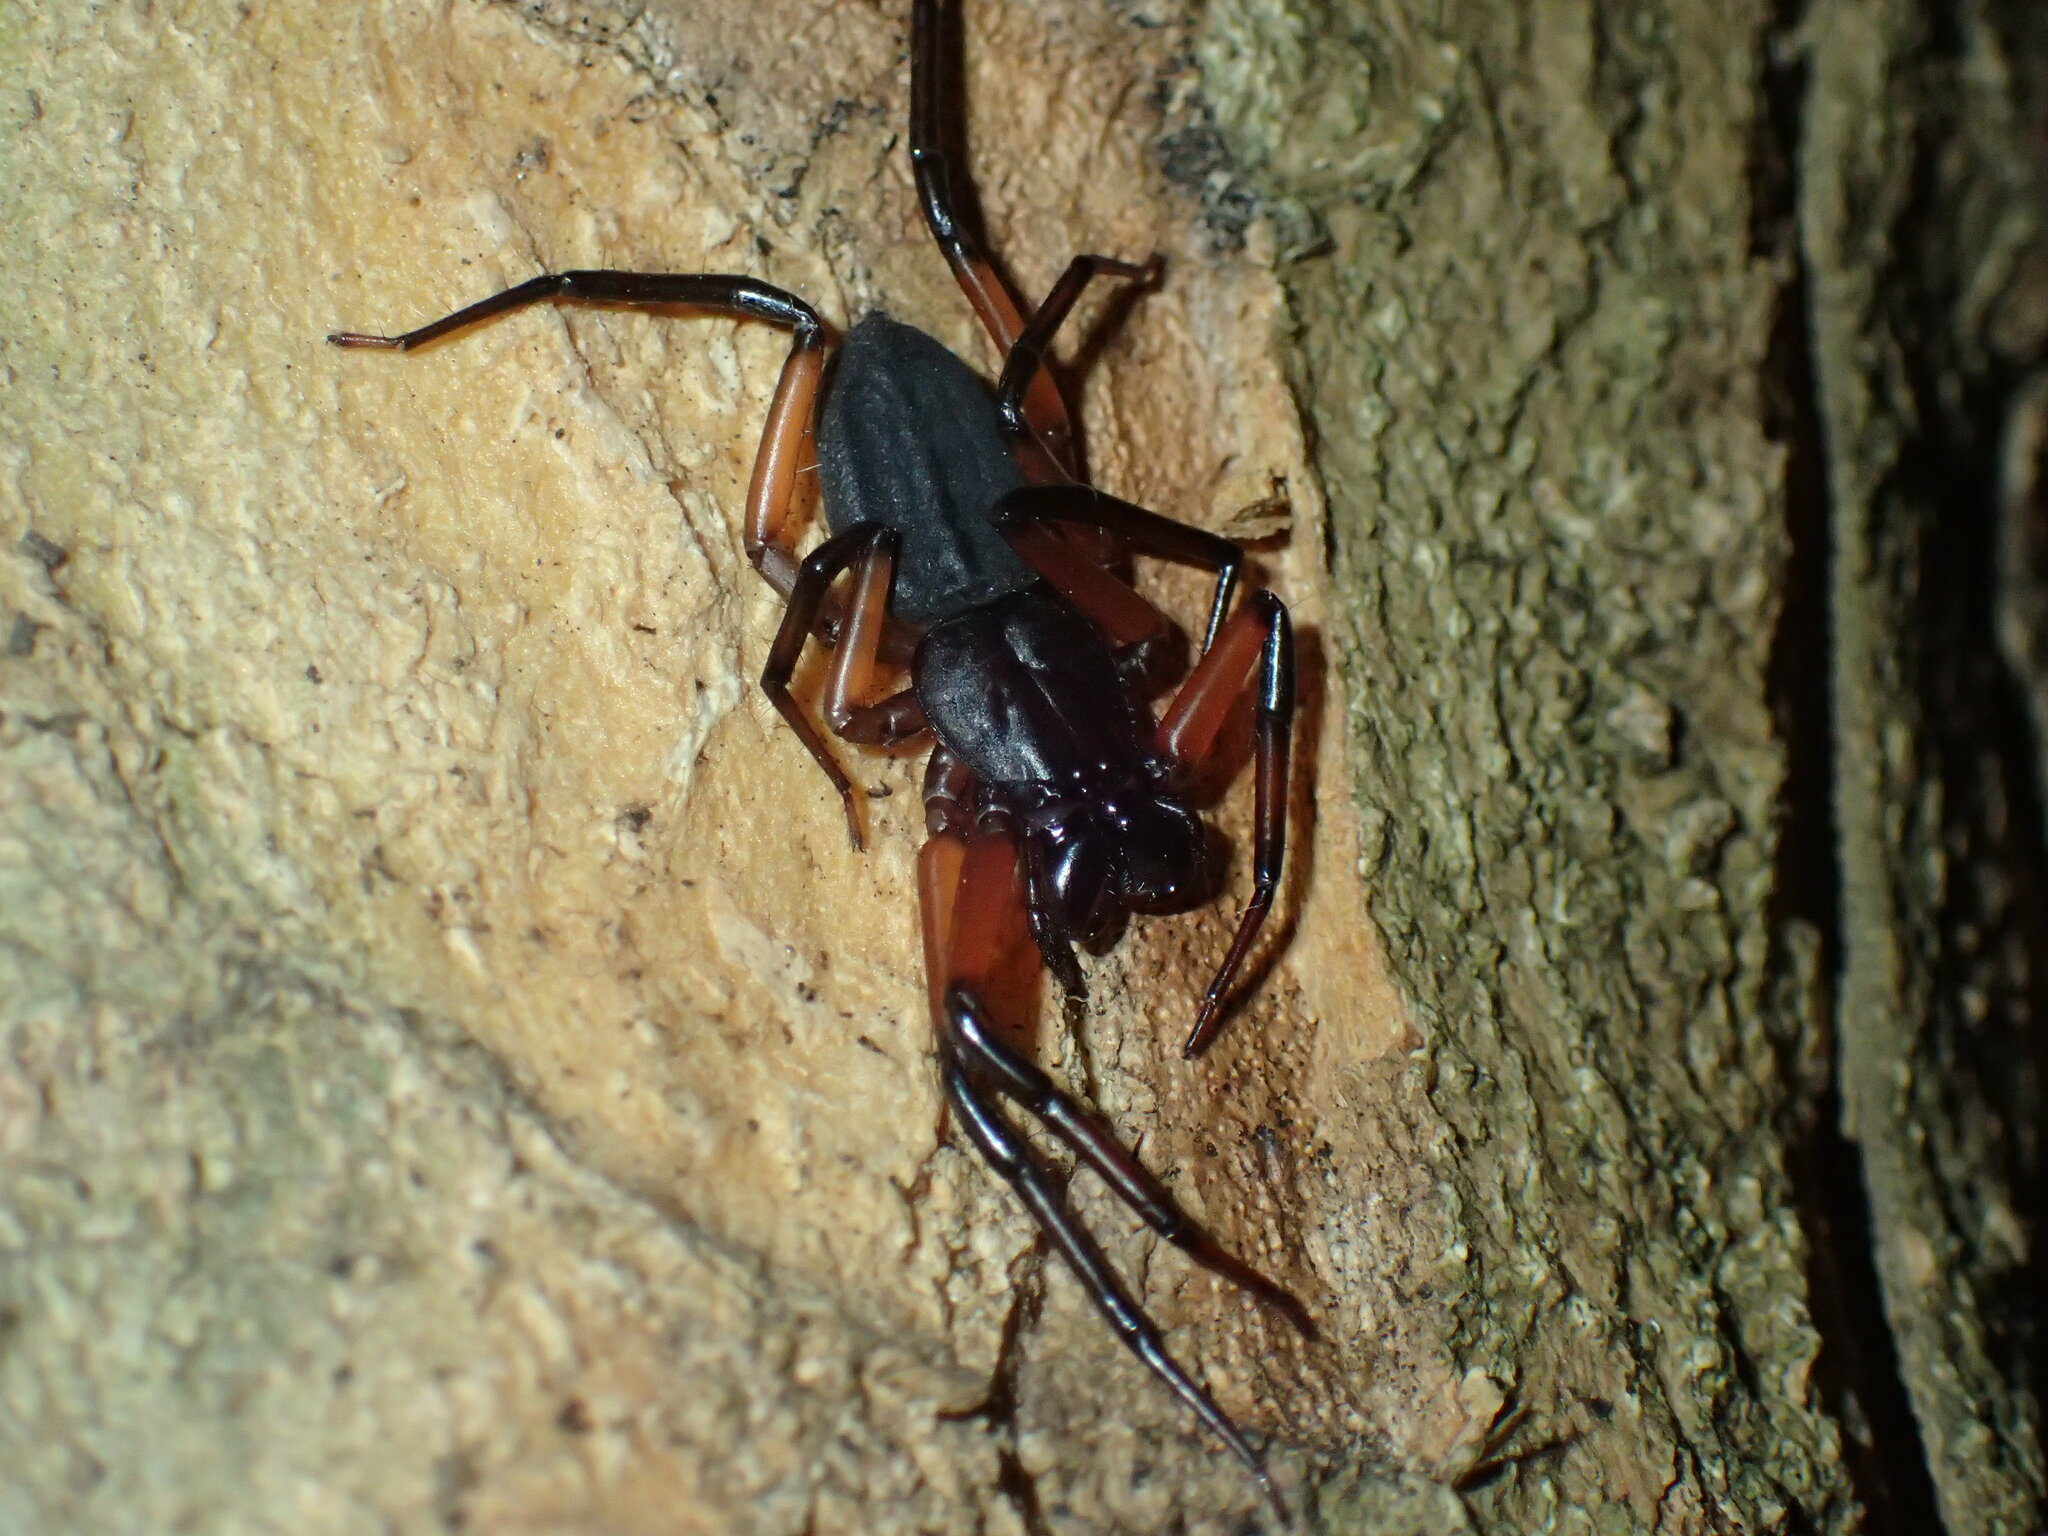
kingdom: Animalia
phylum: Arthropoda
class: Arachnida
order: Araneae
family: Trochanteriidae
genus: Platyoides
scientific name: Platyoides walteri
